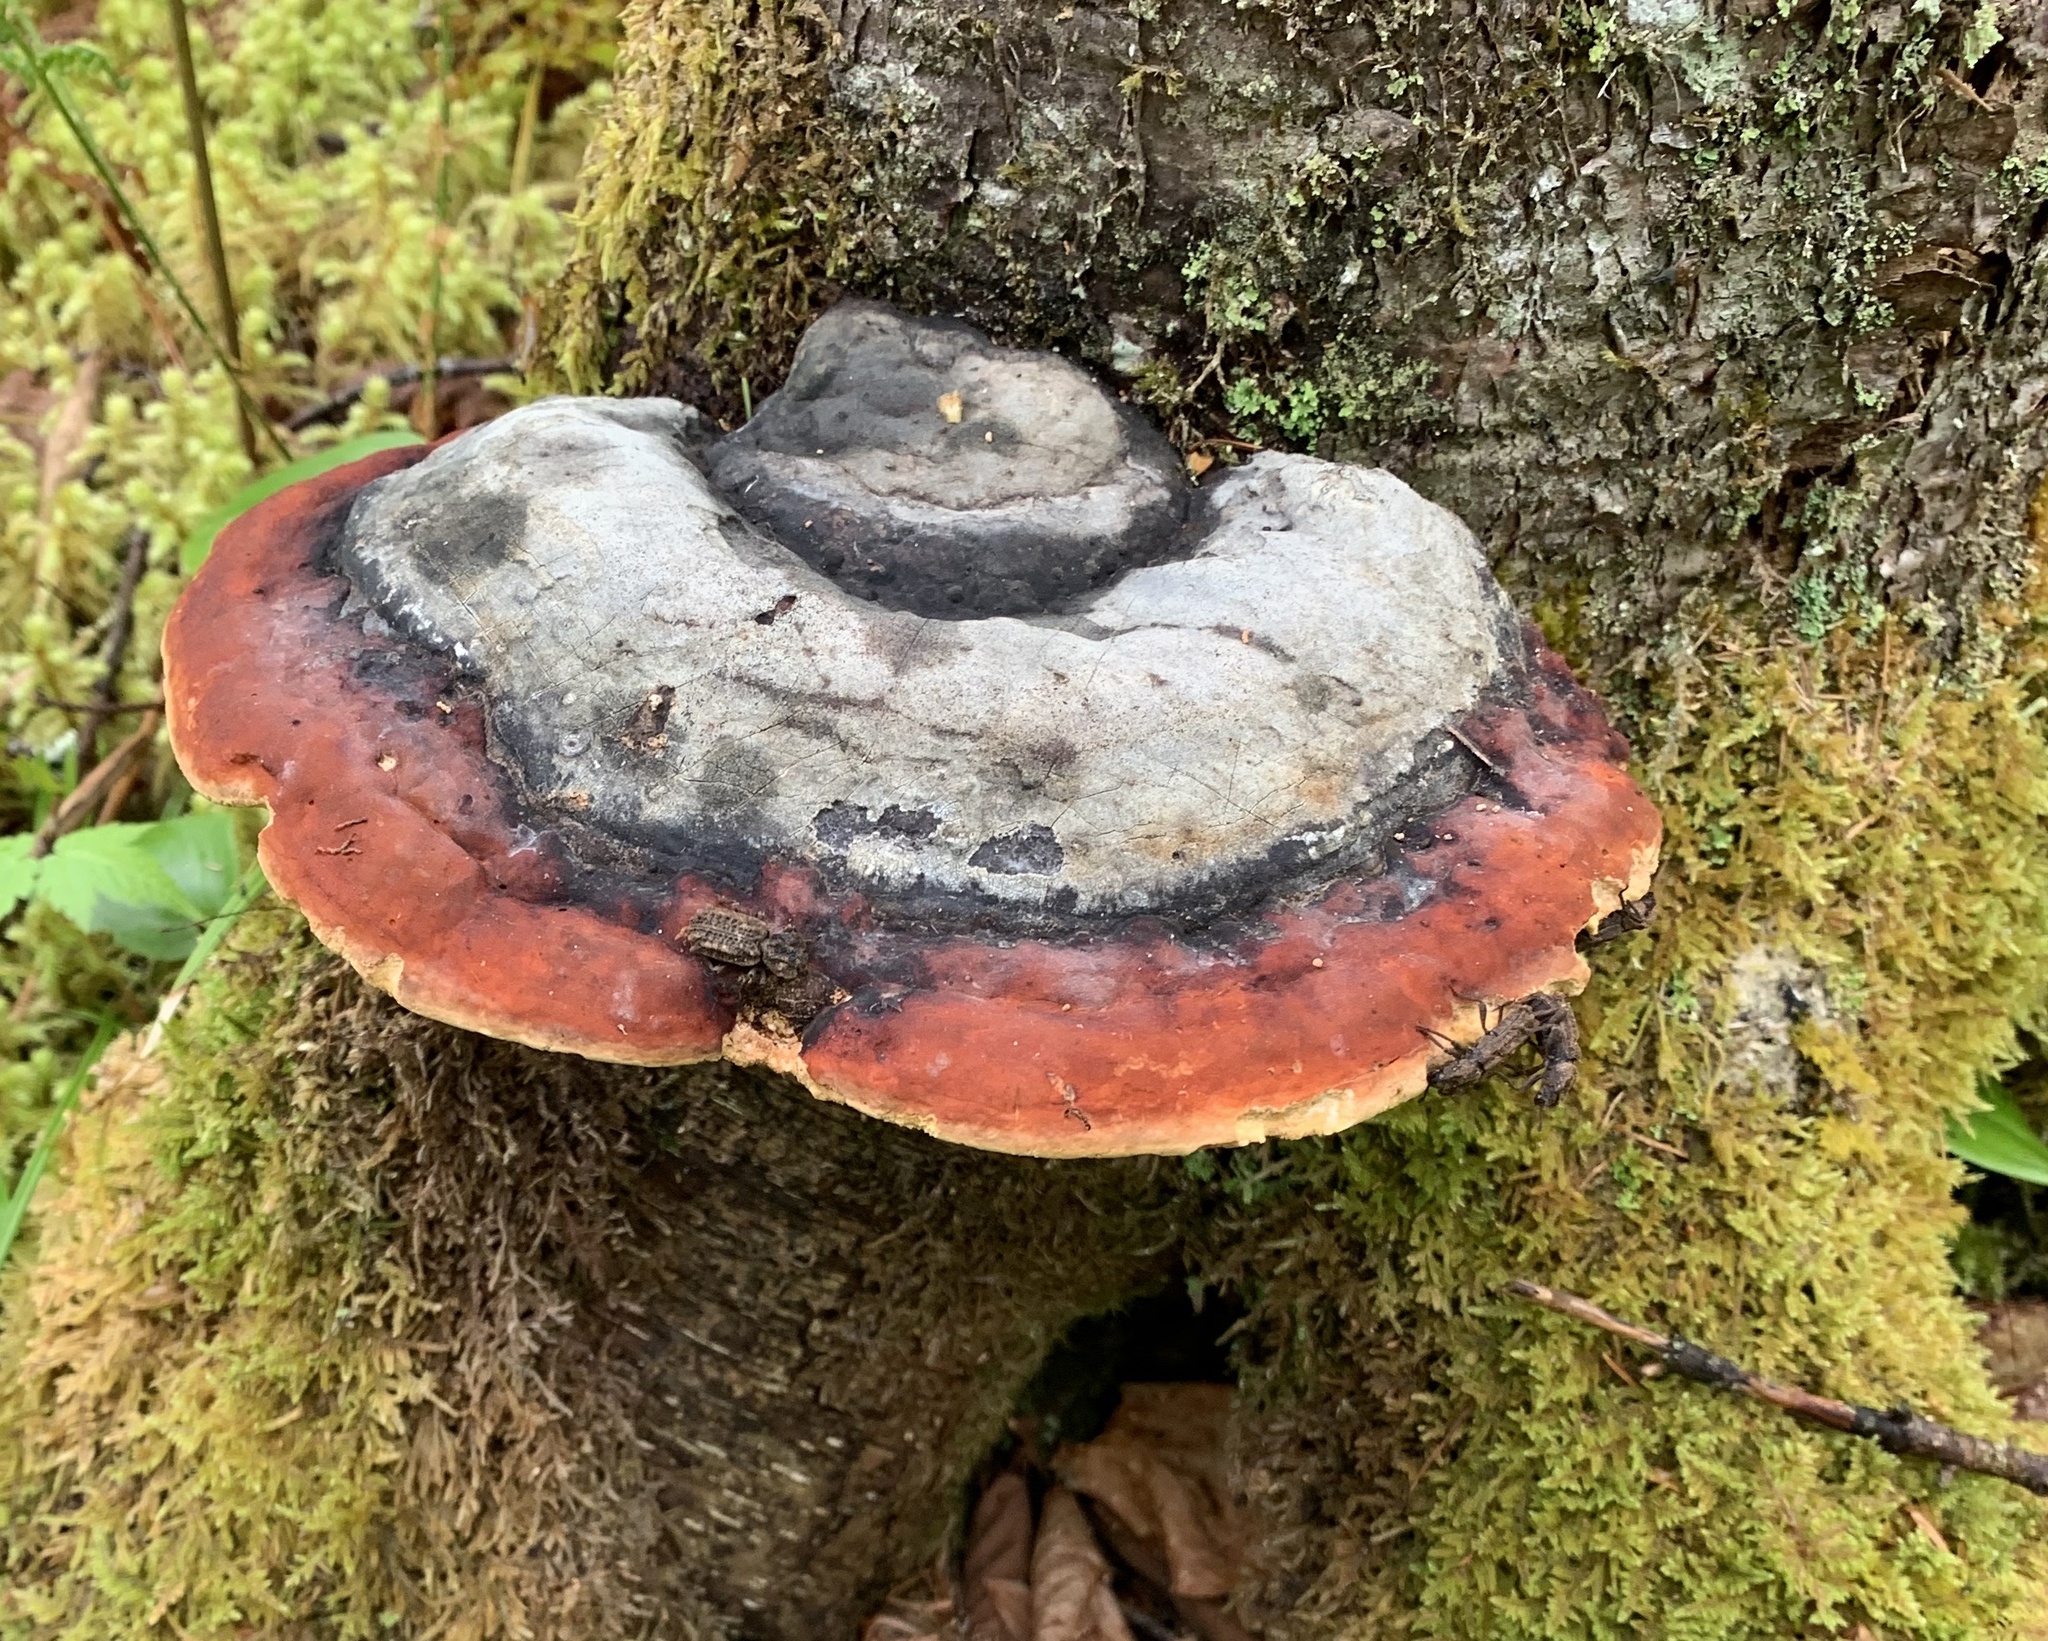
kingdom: Fungi
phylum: Basidiomycota
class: Agaricomycetes
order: Polyporales
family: Fomitopsidaceae
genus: Fomitopsis
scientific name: Fomitopsis mounceae
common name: Northern red belt
